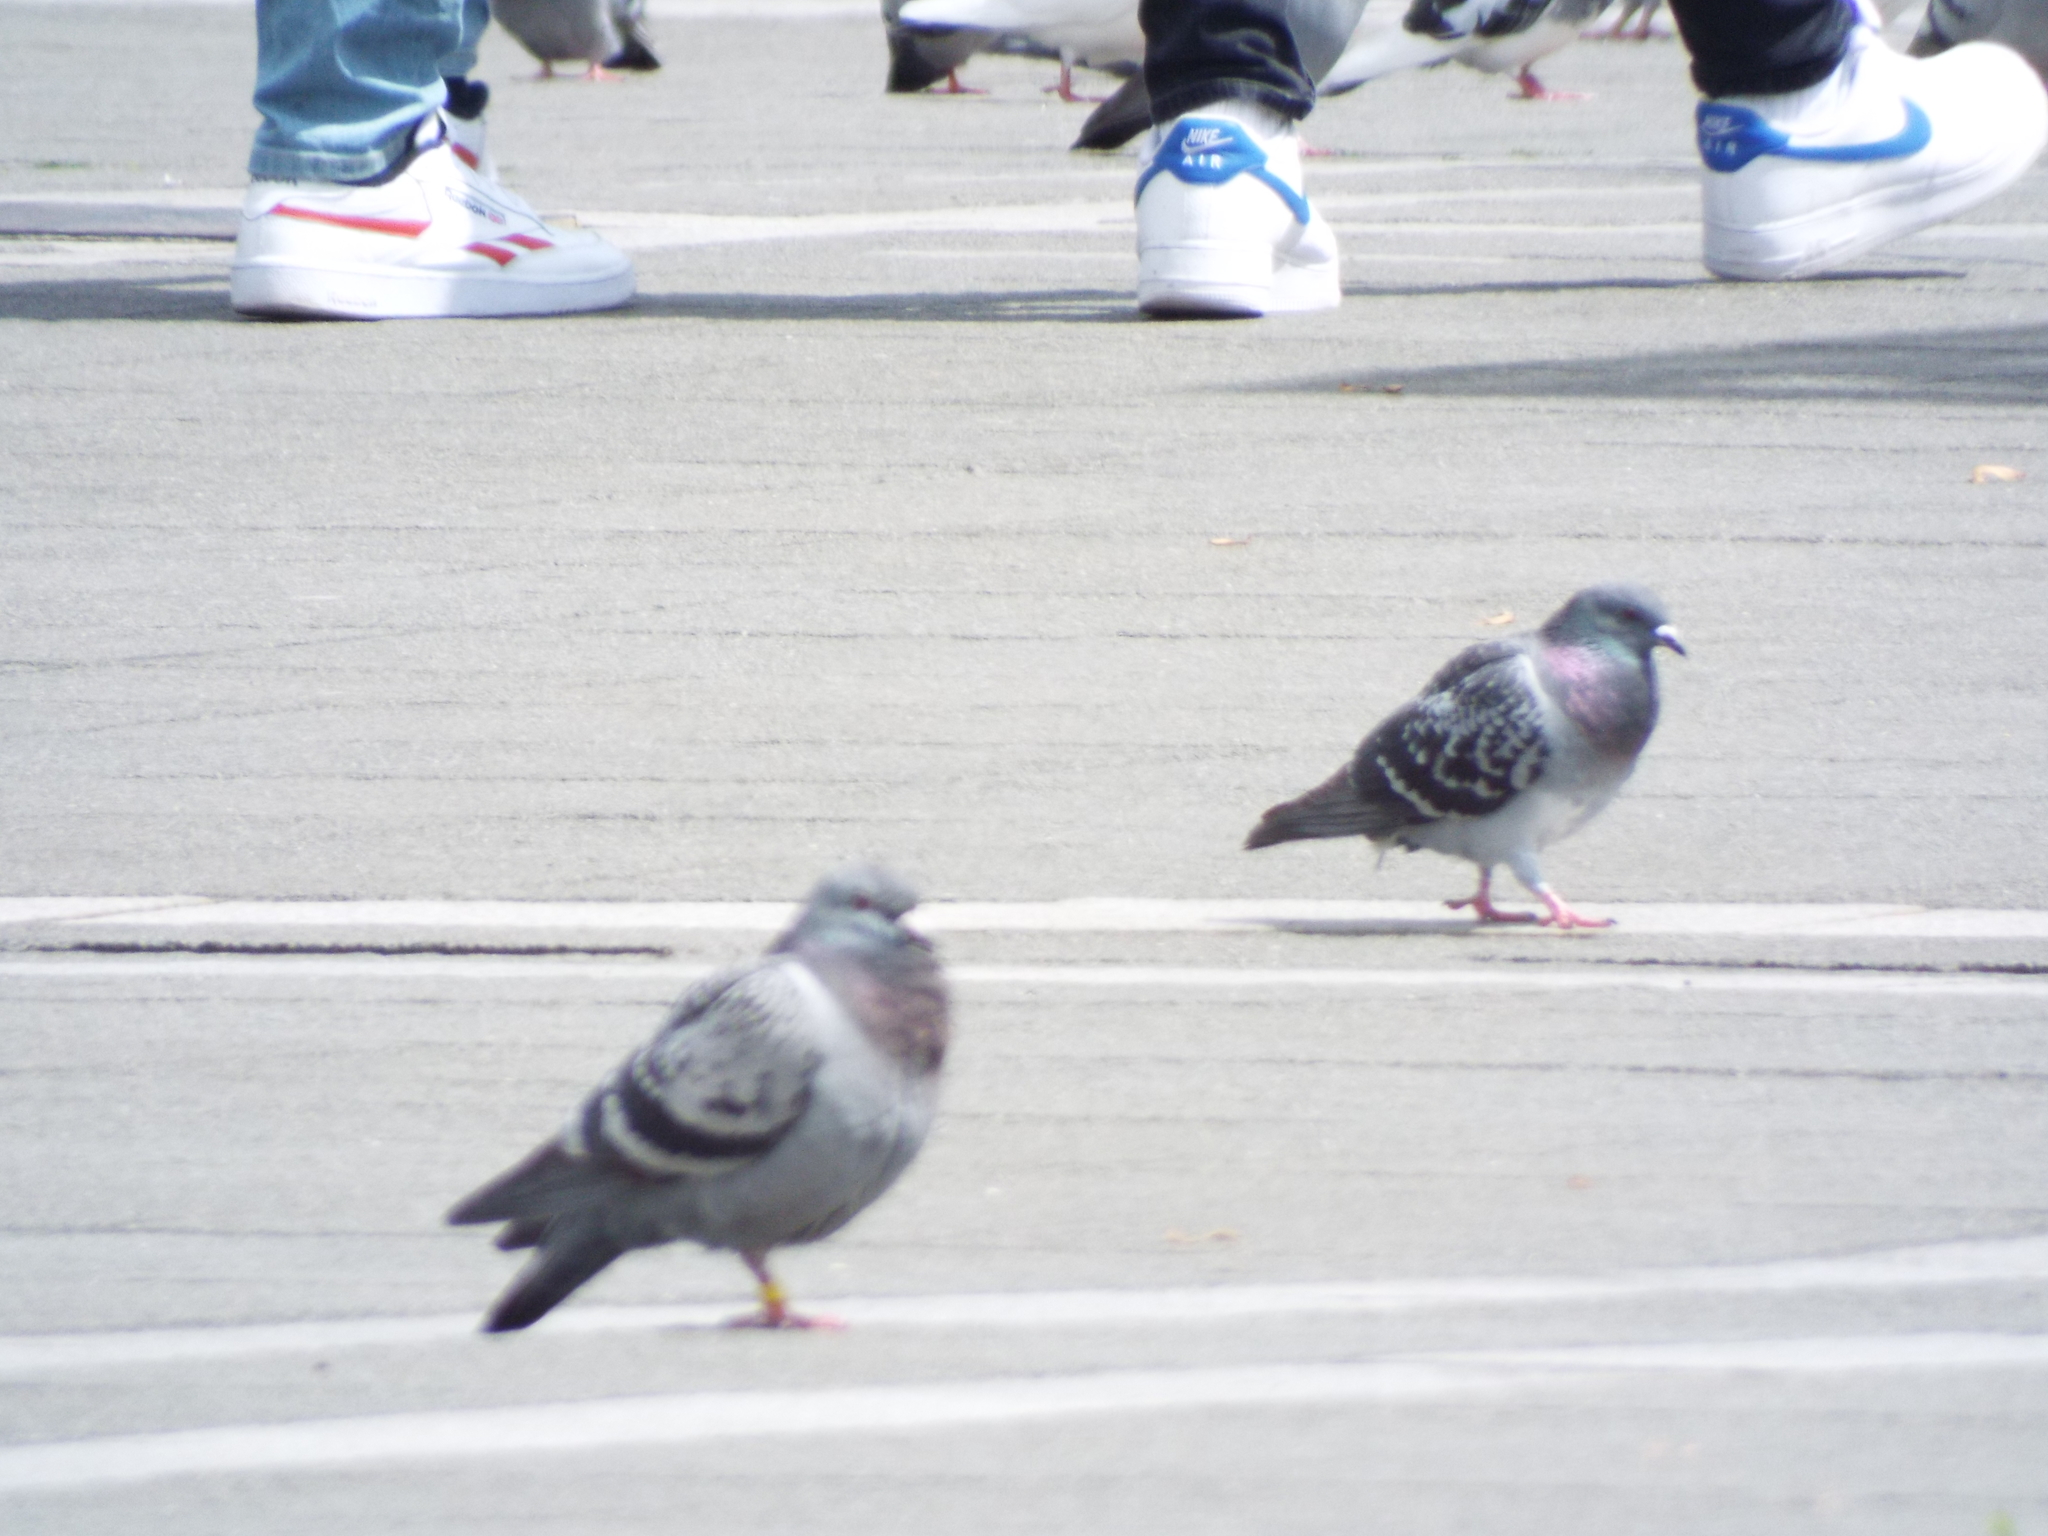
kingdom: Animalia
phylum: Chordata
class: Aves
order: Columbiformes
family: Columbidae
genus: Columba
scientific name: Columba livia
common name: Rock pigeon
